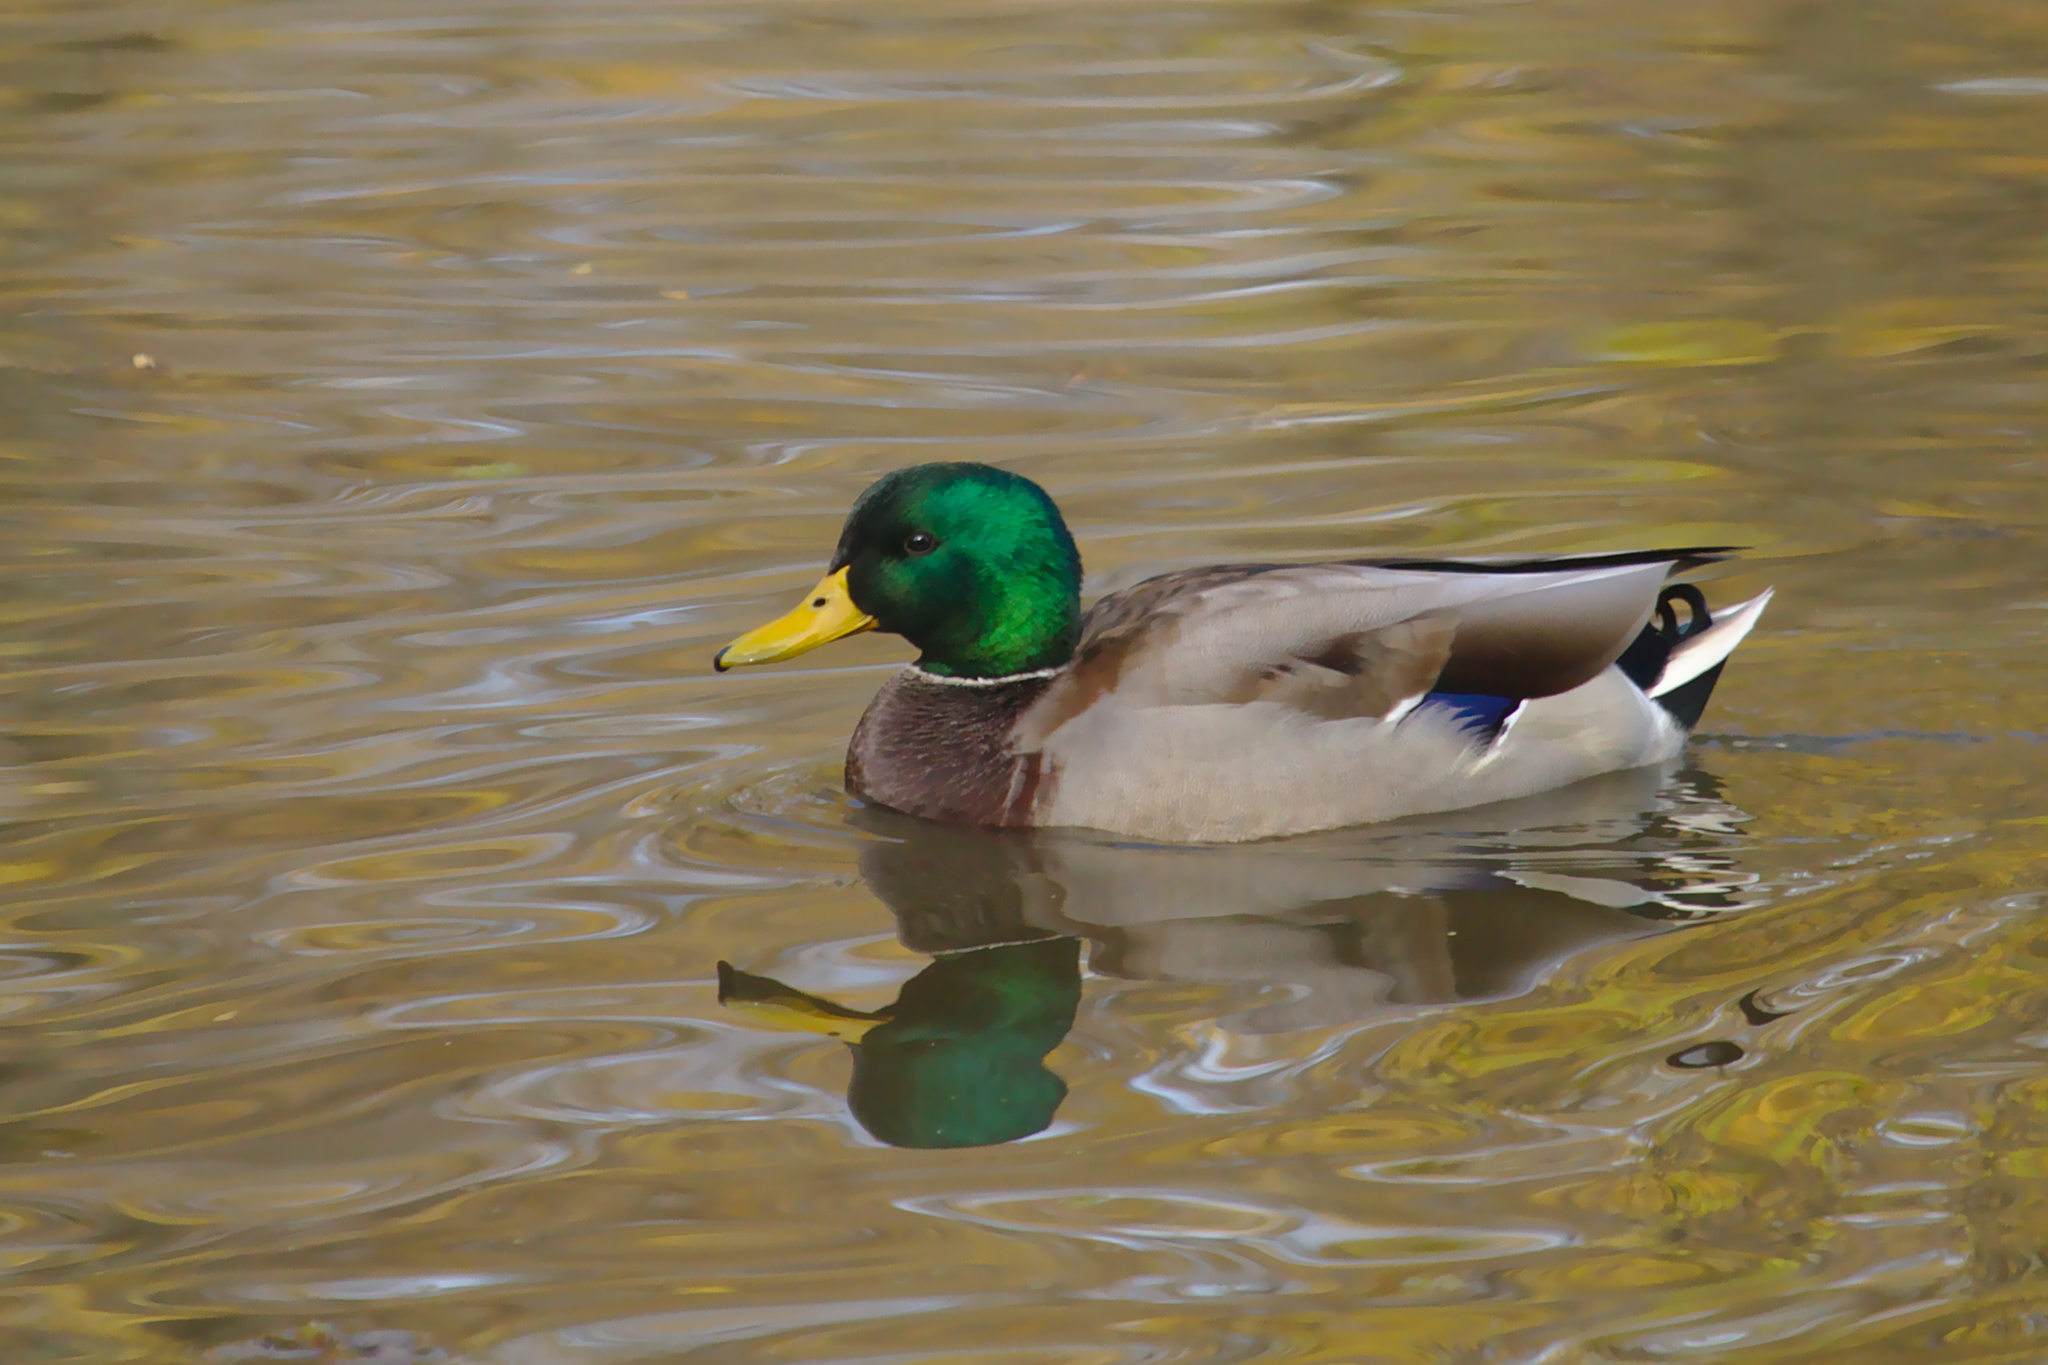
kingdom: Animalia
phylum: Chordata
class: Aves
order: Anseriformes
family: Anatidae
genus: Anas
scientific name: Anas platyrhynchos
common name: Mallard
